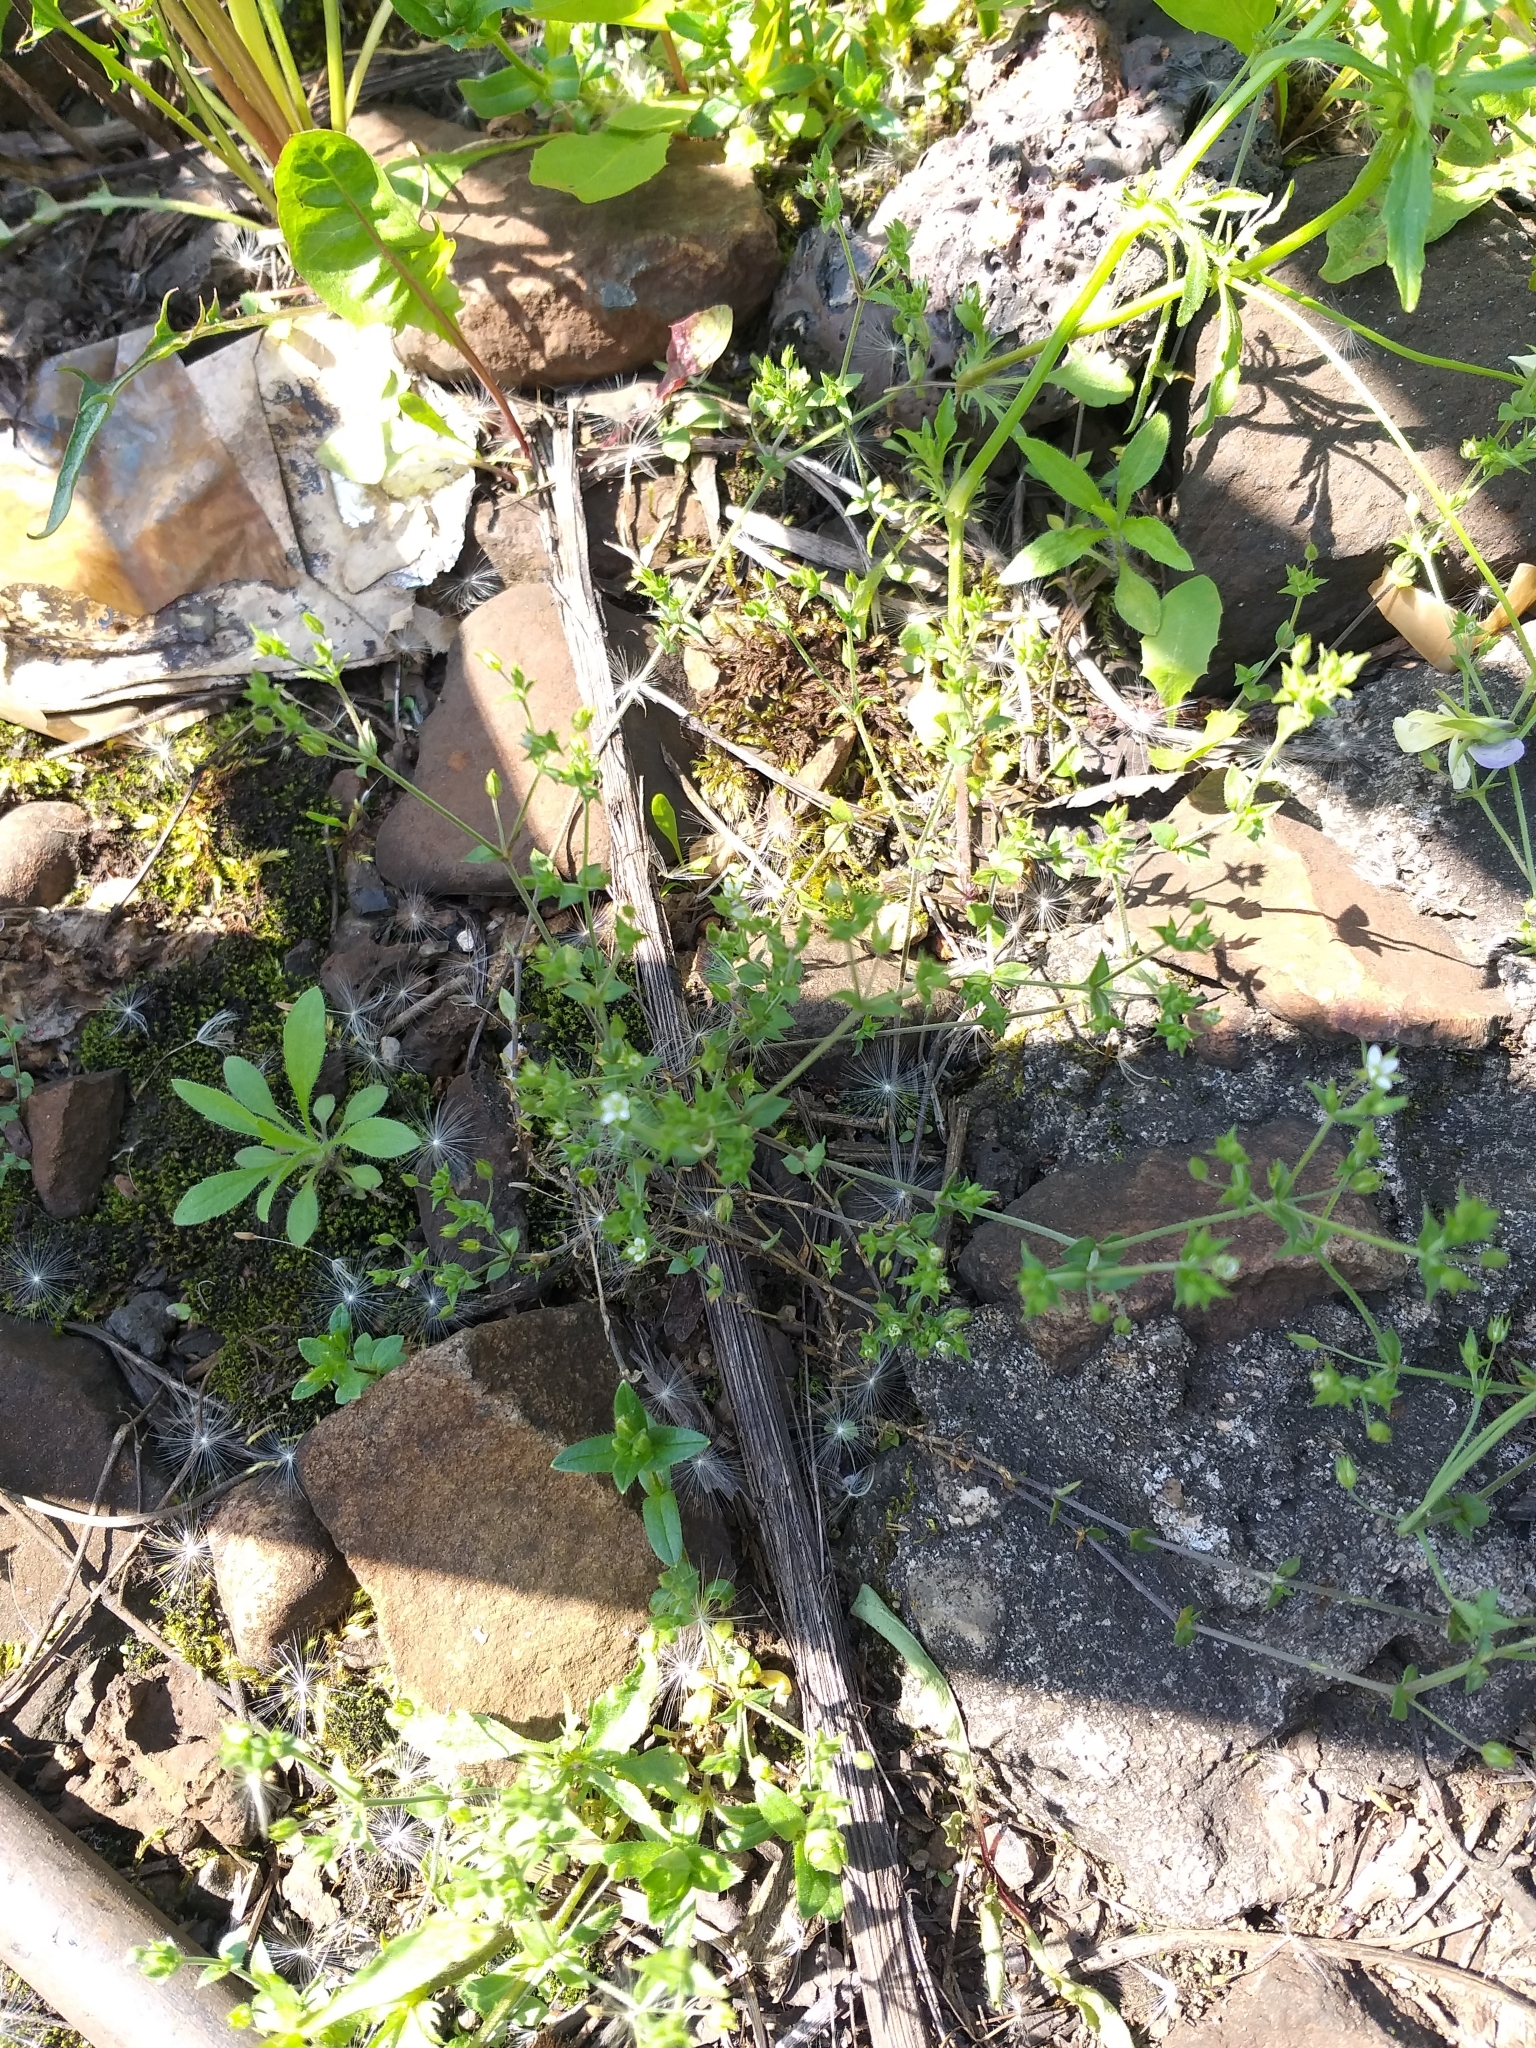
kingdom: Plantae
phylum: Tracheophyta
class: Magnoliopsida
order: Caryophyllales
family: Caryophyllaceae
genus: Arenaria
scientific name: Arenaria serpyllifolia
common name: Thyme-leaved sandwort
